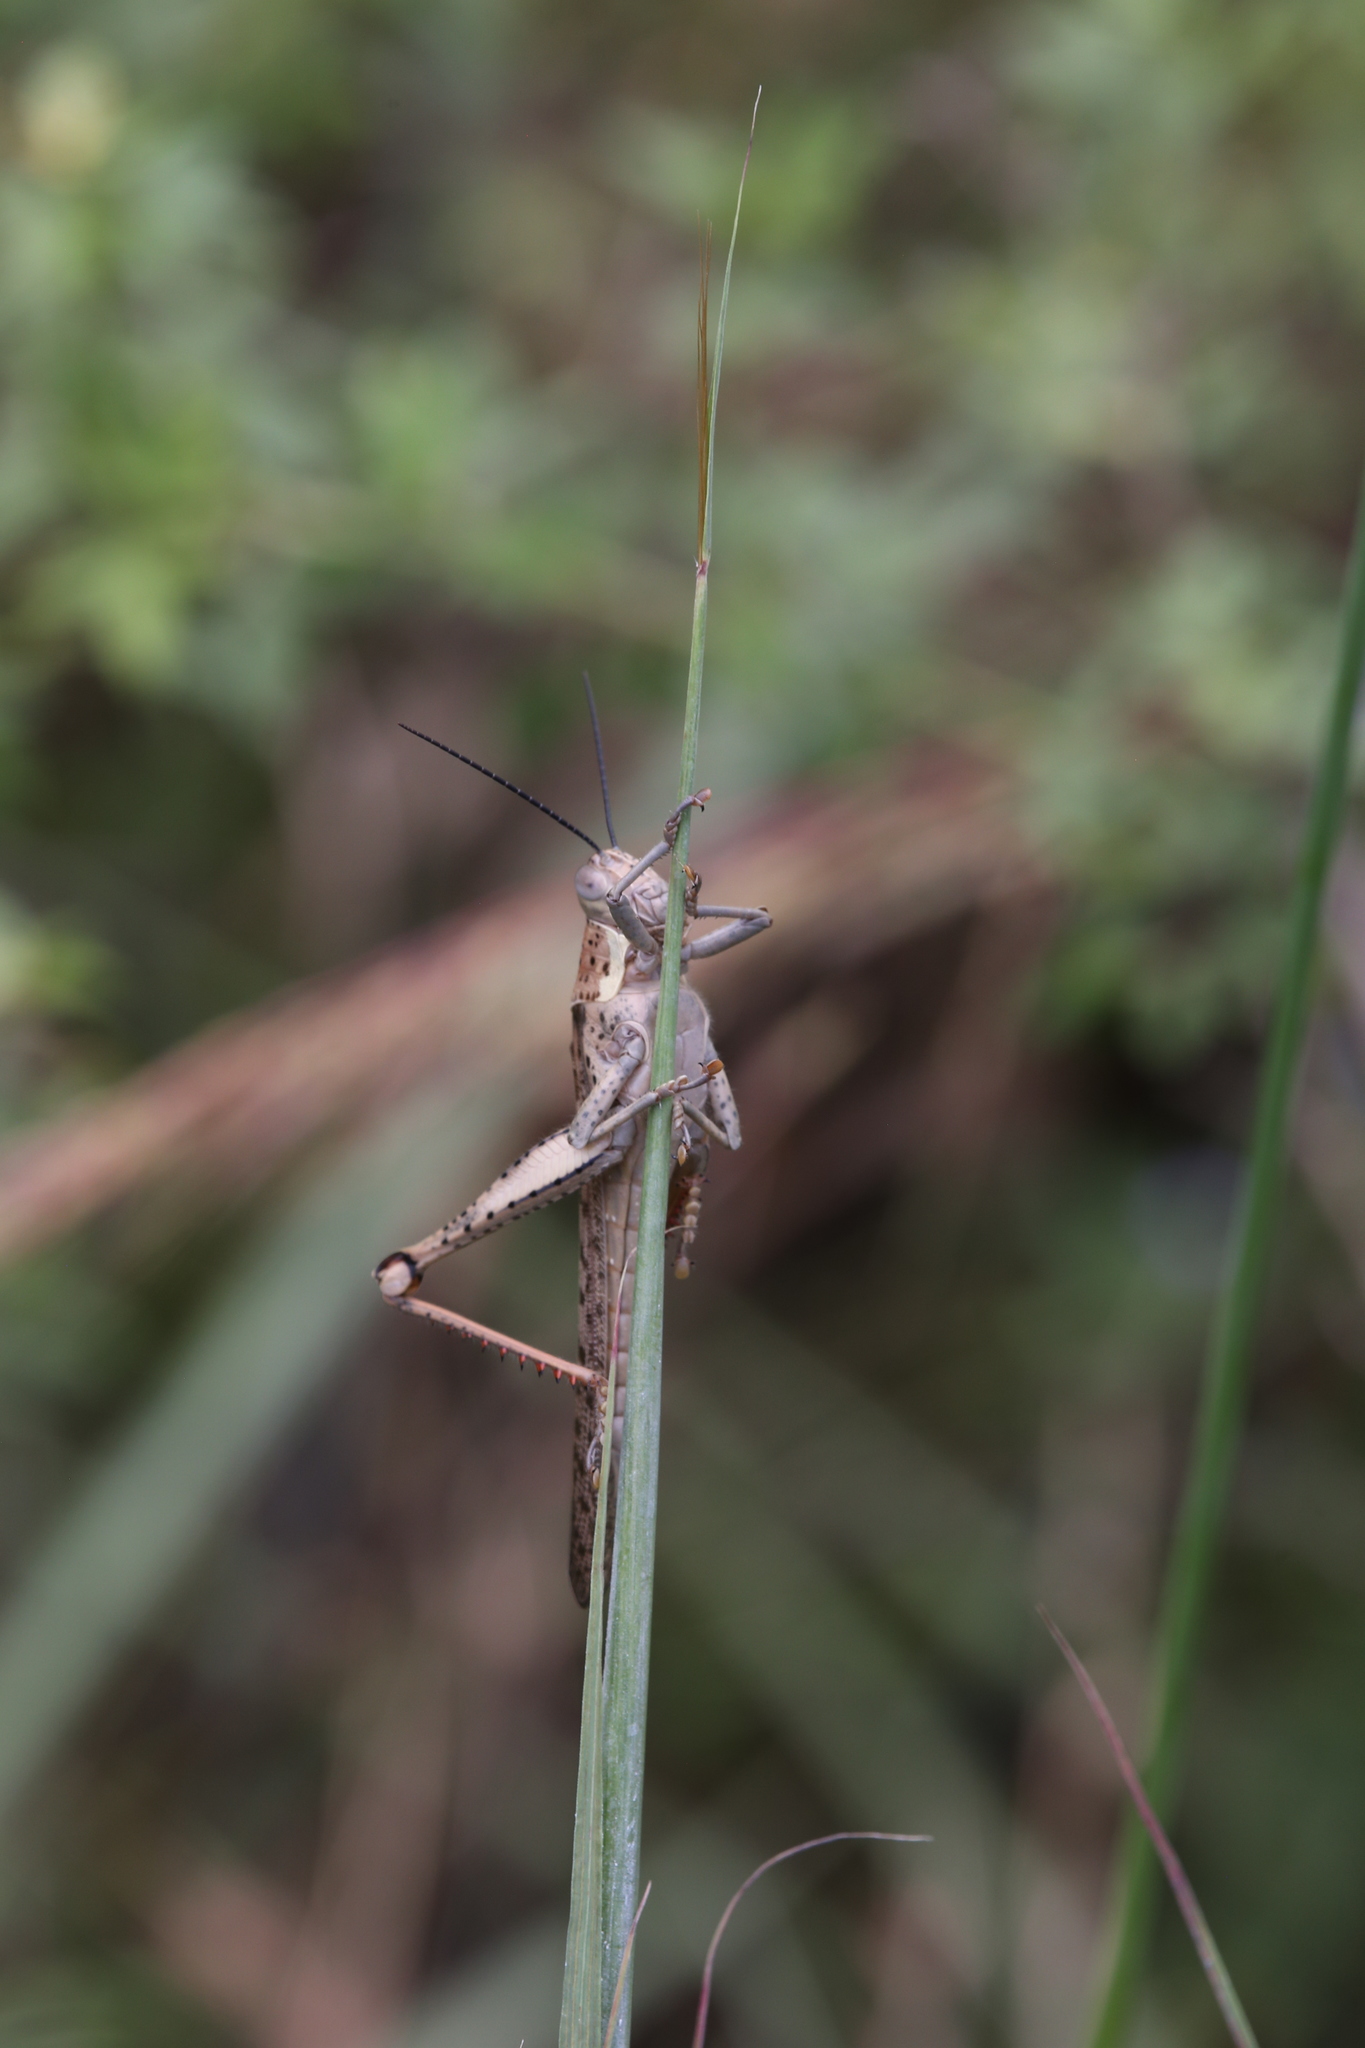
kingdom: Animalia
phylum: Arthropoda
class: Insecta
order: Orthoptera
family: Acrididae
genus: Valanga
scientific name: Valanga irregularis
